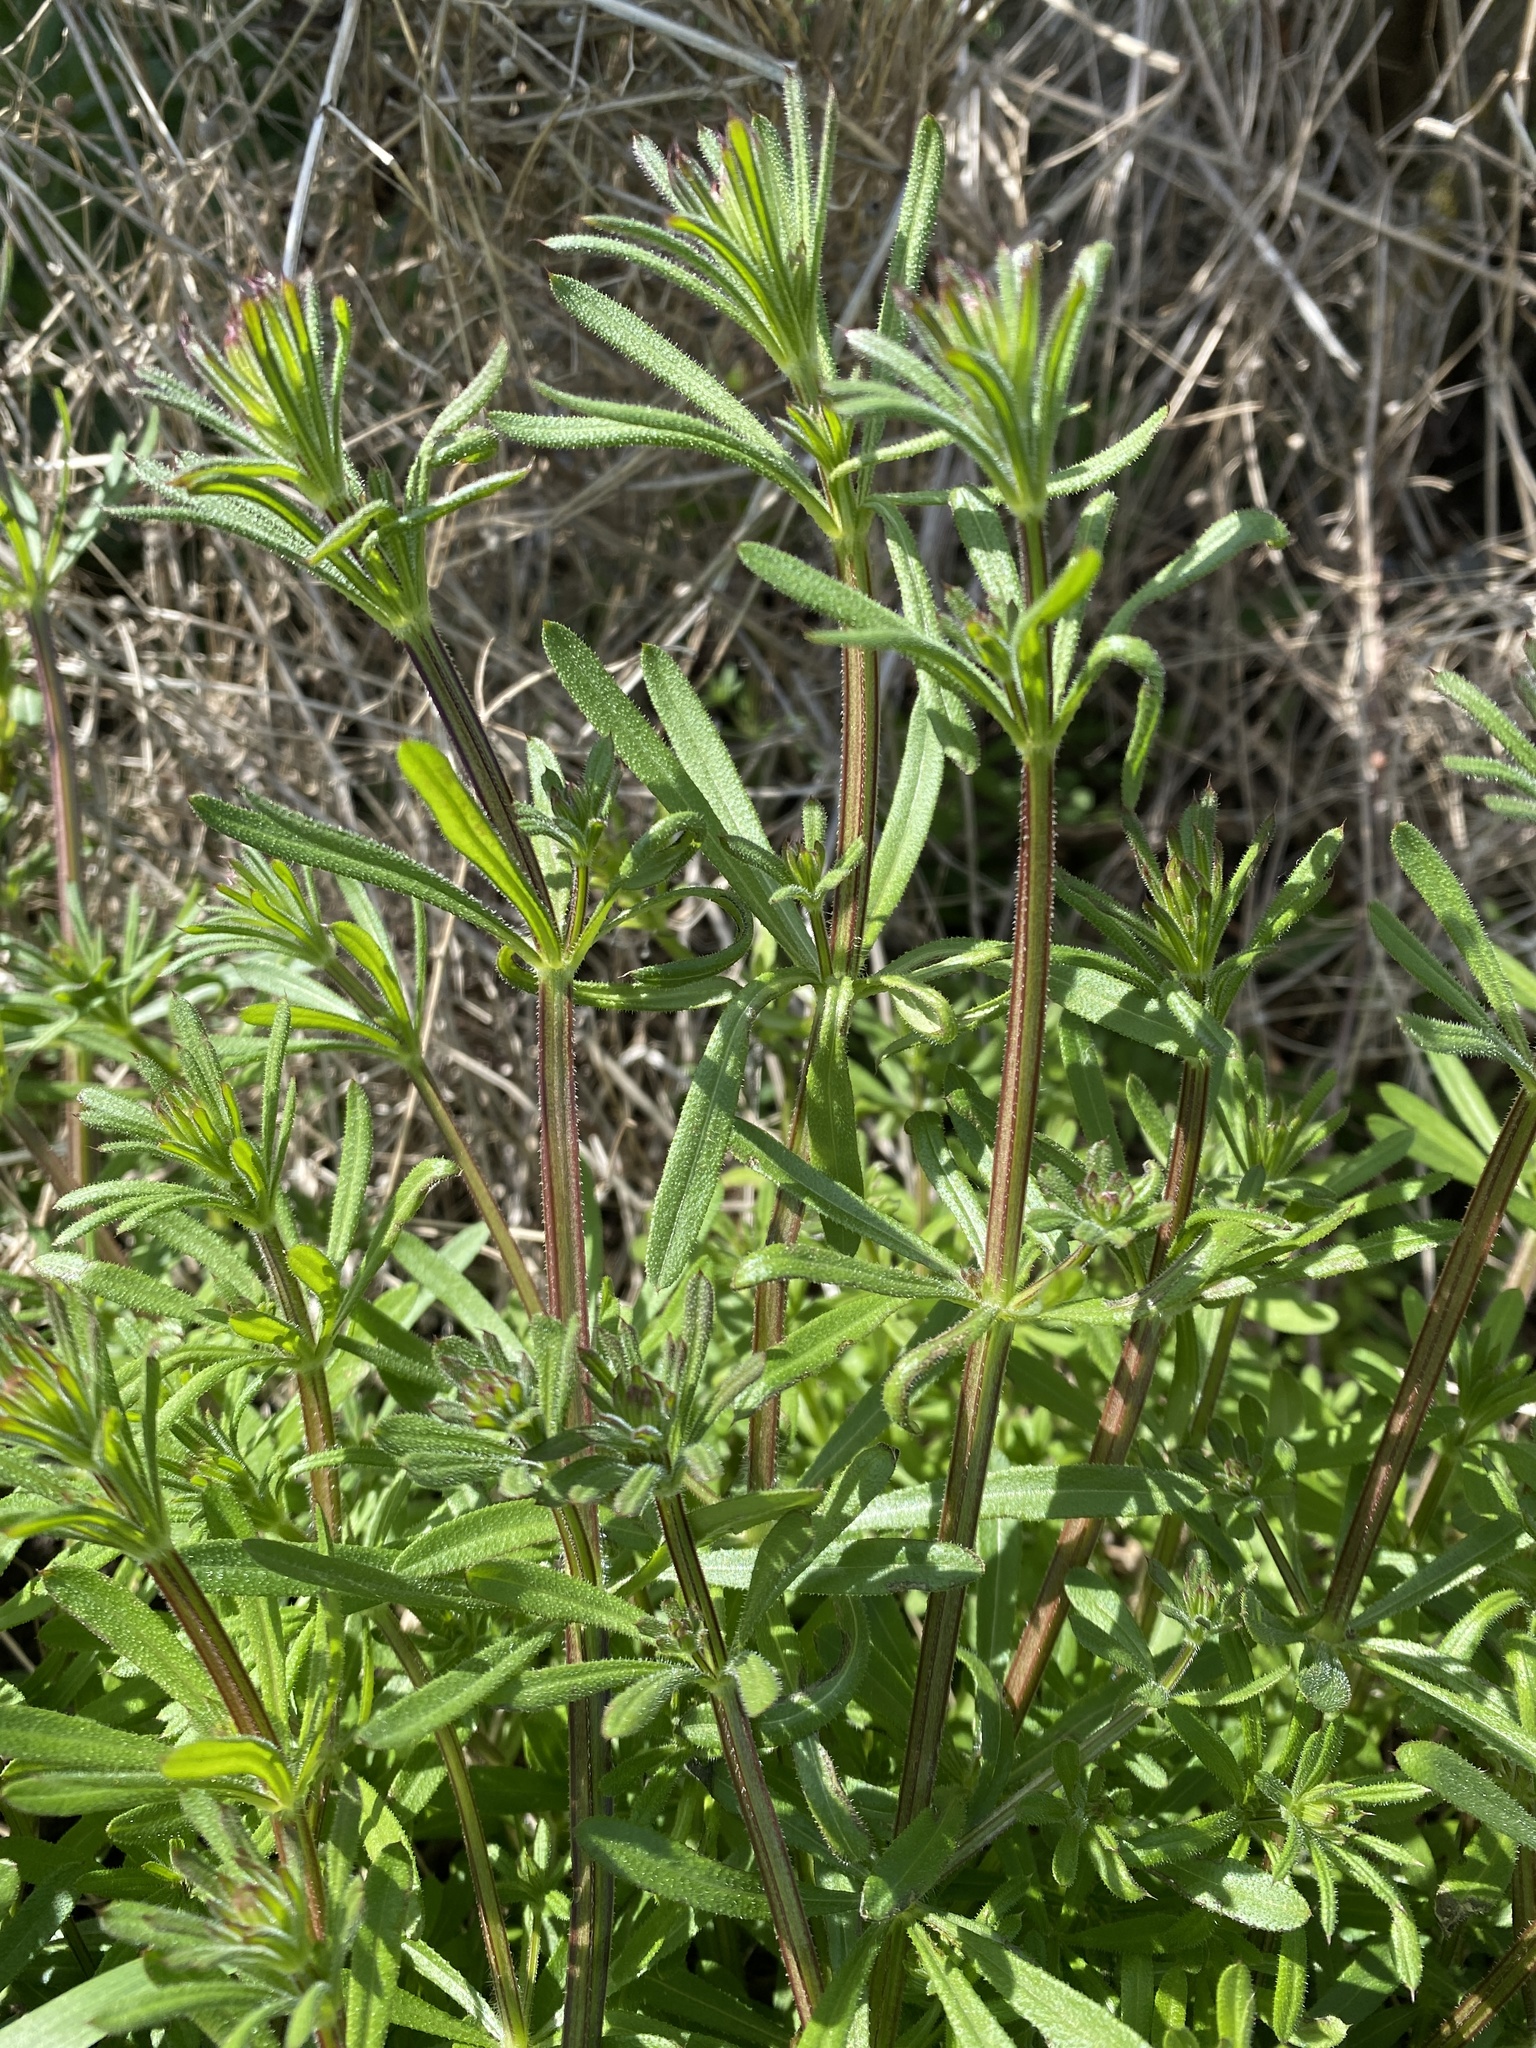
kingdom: Plantae
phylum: Tracheophyta
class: Magnoliopsida
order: Gentianales
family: Rubiaceae
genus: Galium
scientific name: Galium aparine
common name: Cleavers
